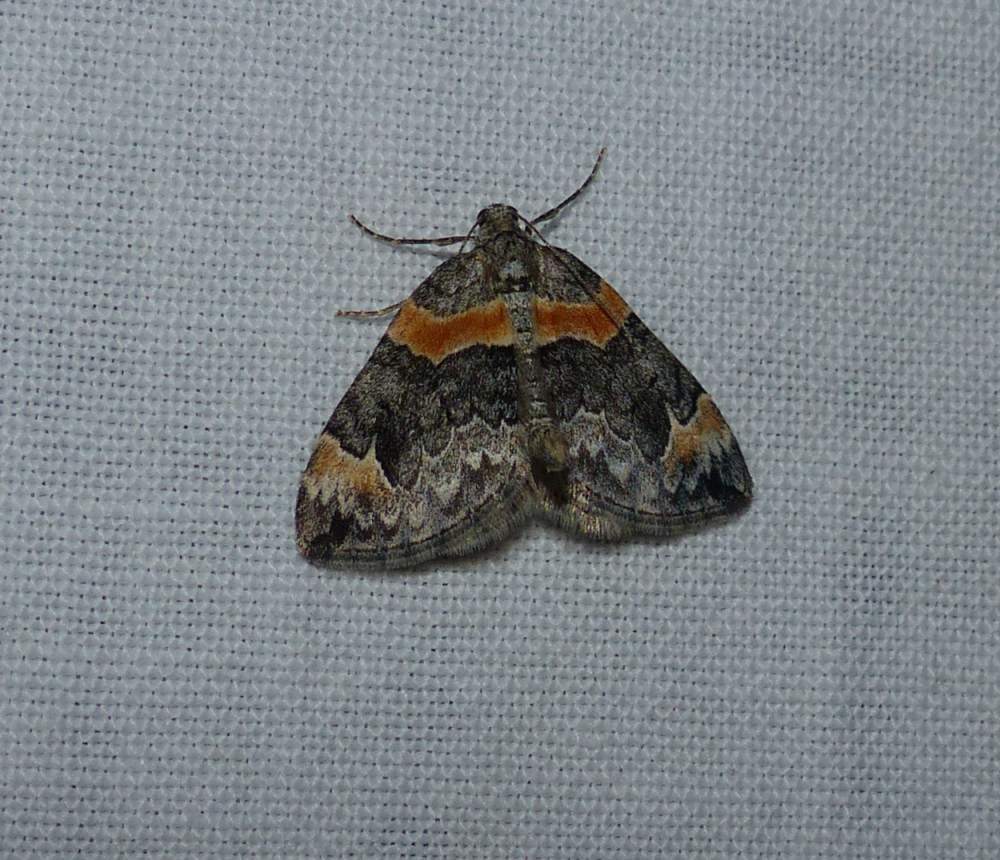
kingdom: Animalia
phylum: Arthropoda
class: Insecta
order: Lepidoptera
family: Geometridae
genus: Dysstroma
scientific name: Dysstroma hersiliata
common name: Orange-barred carpet
